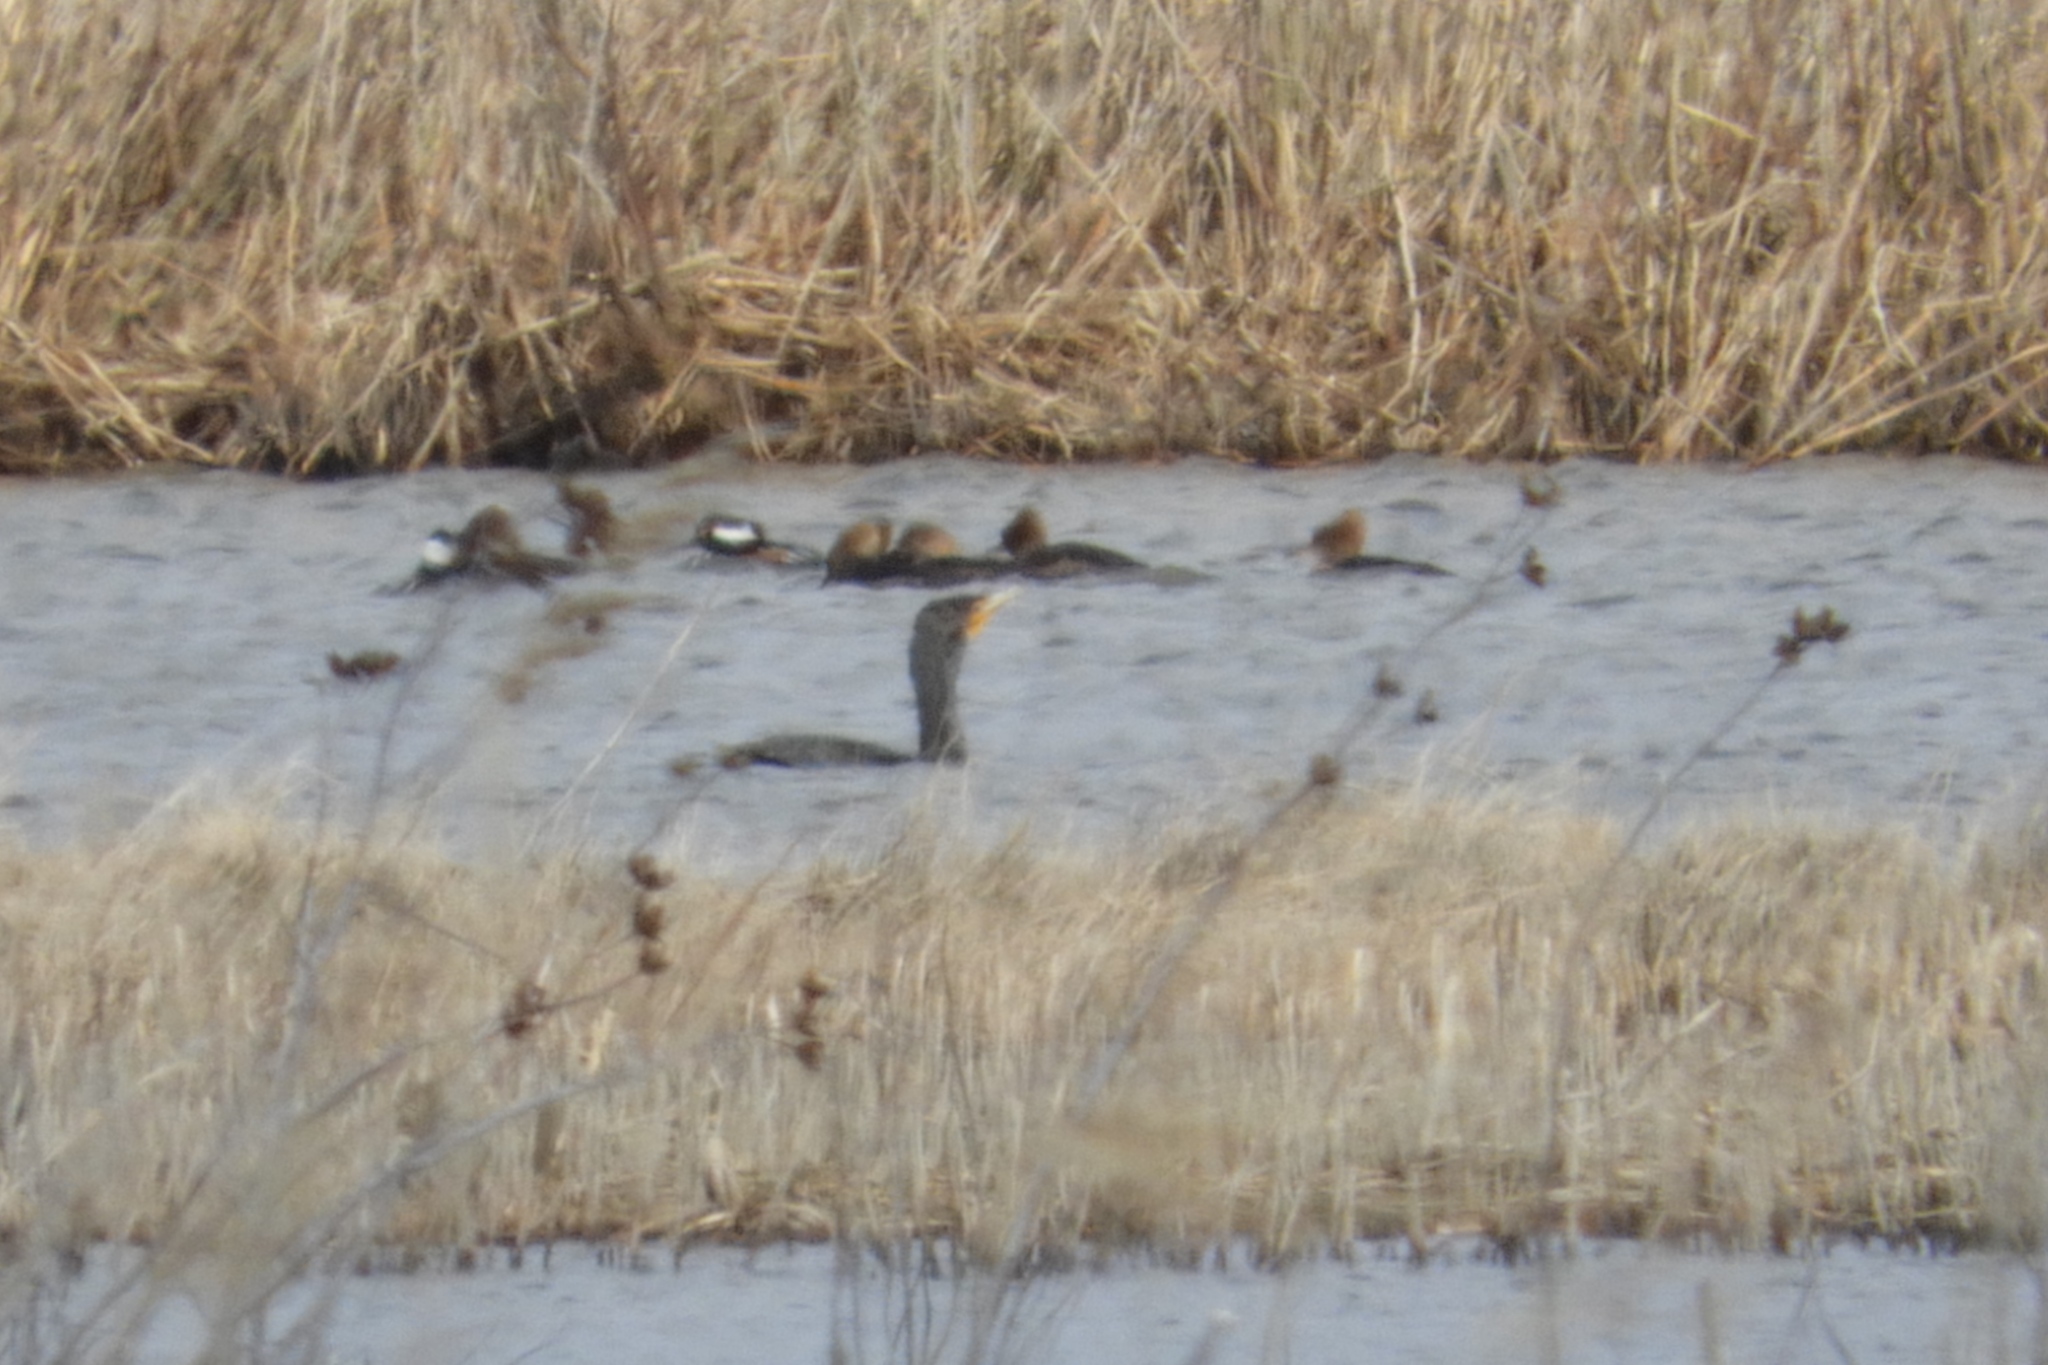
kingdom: Animalia
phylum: Chordata
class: Aves
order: Suliformes
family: Phalacrocoracidae
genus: Phalacrocorax
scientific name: Phalacrocorax auritus
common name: Double-crested cormorant
